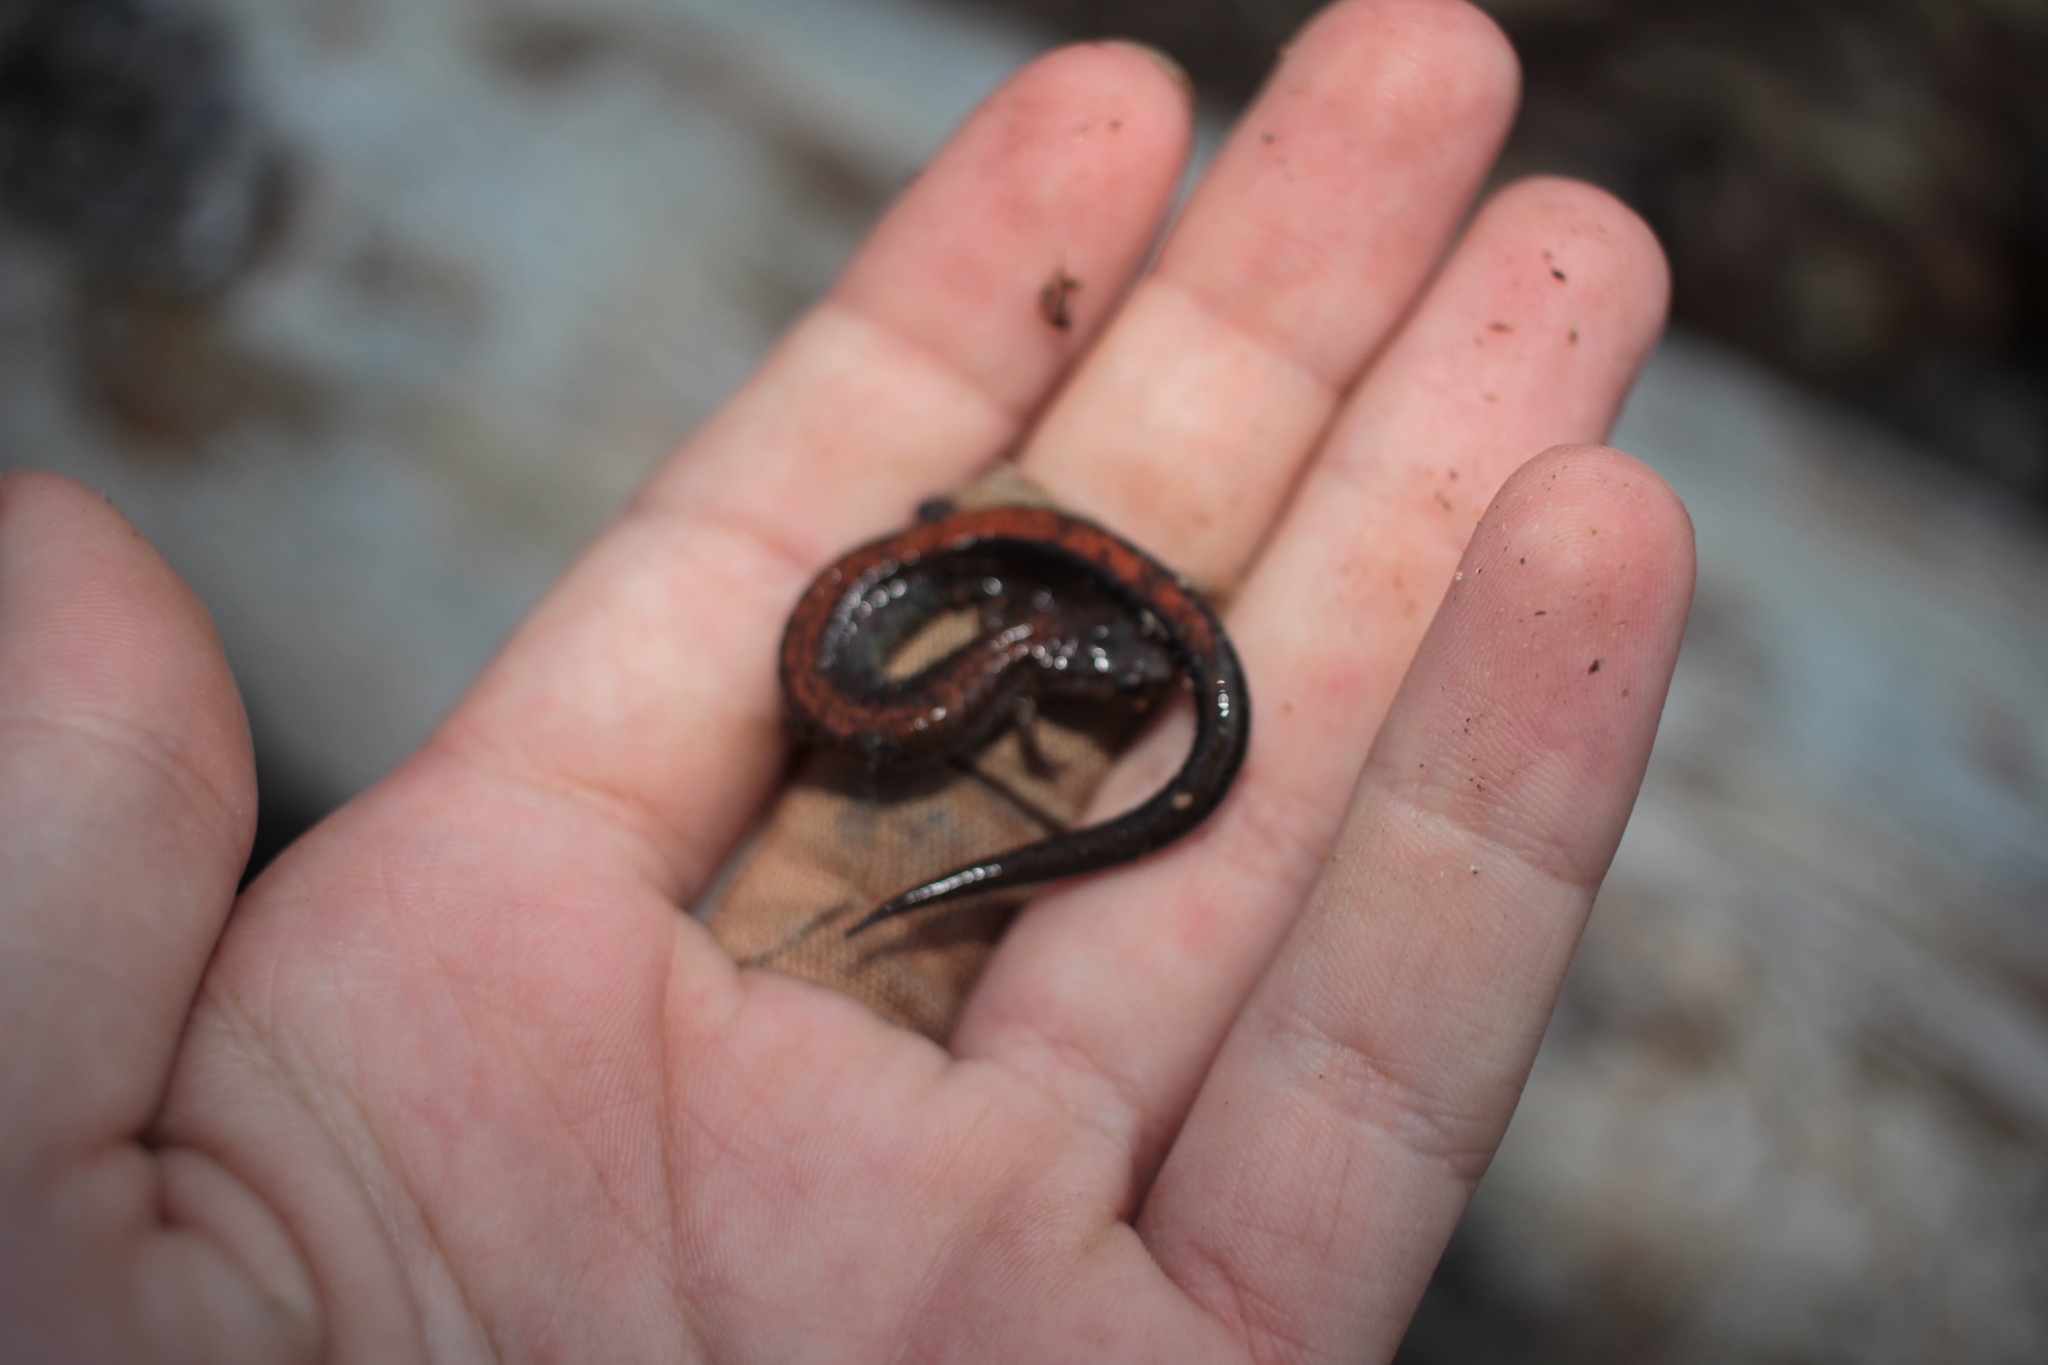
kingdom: Animalia
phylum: Chordata
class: Amphibia
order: Caudata
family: Plethodontidae
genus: Plethodon
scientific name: Plethodon cinereus
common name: Redback salamander
